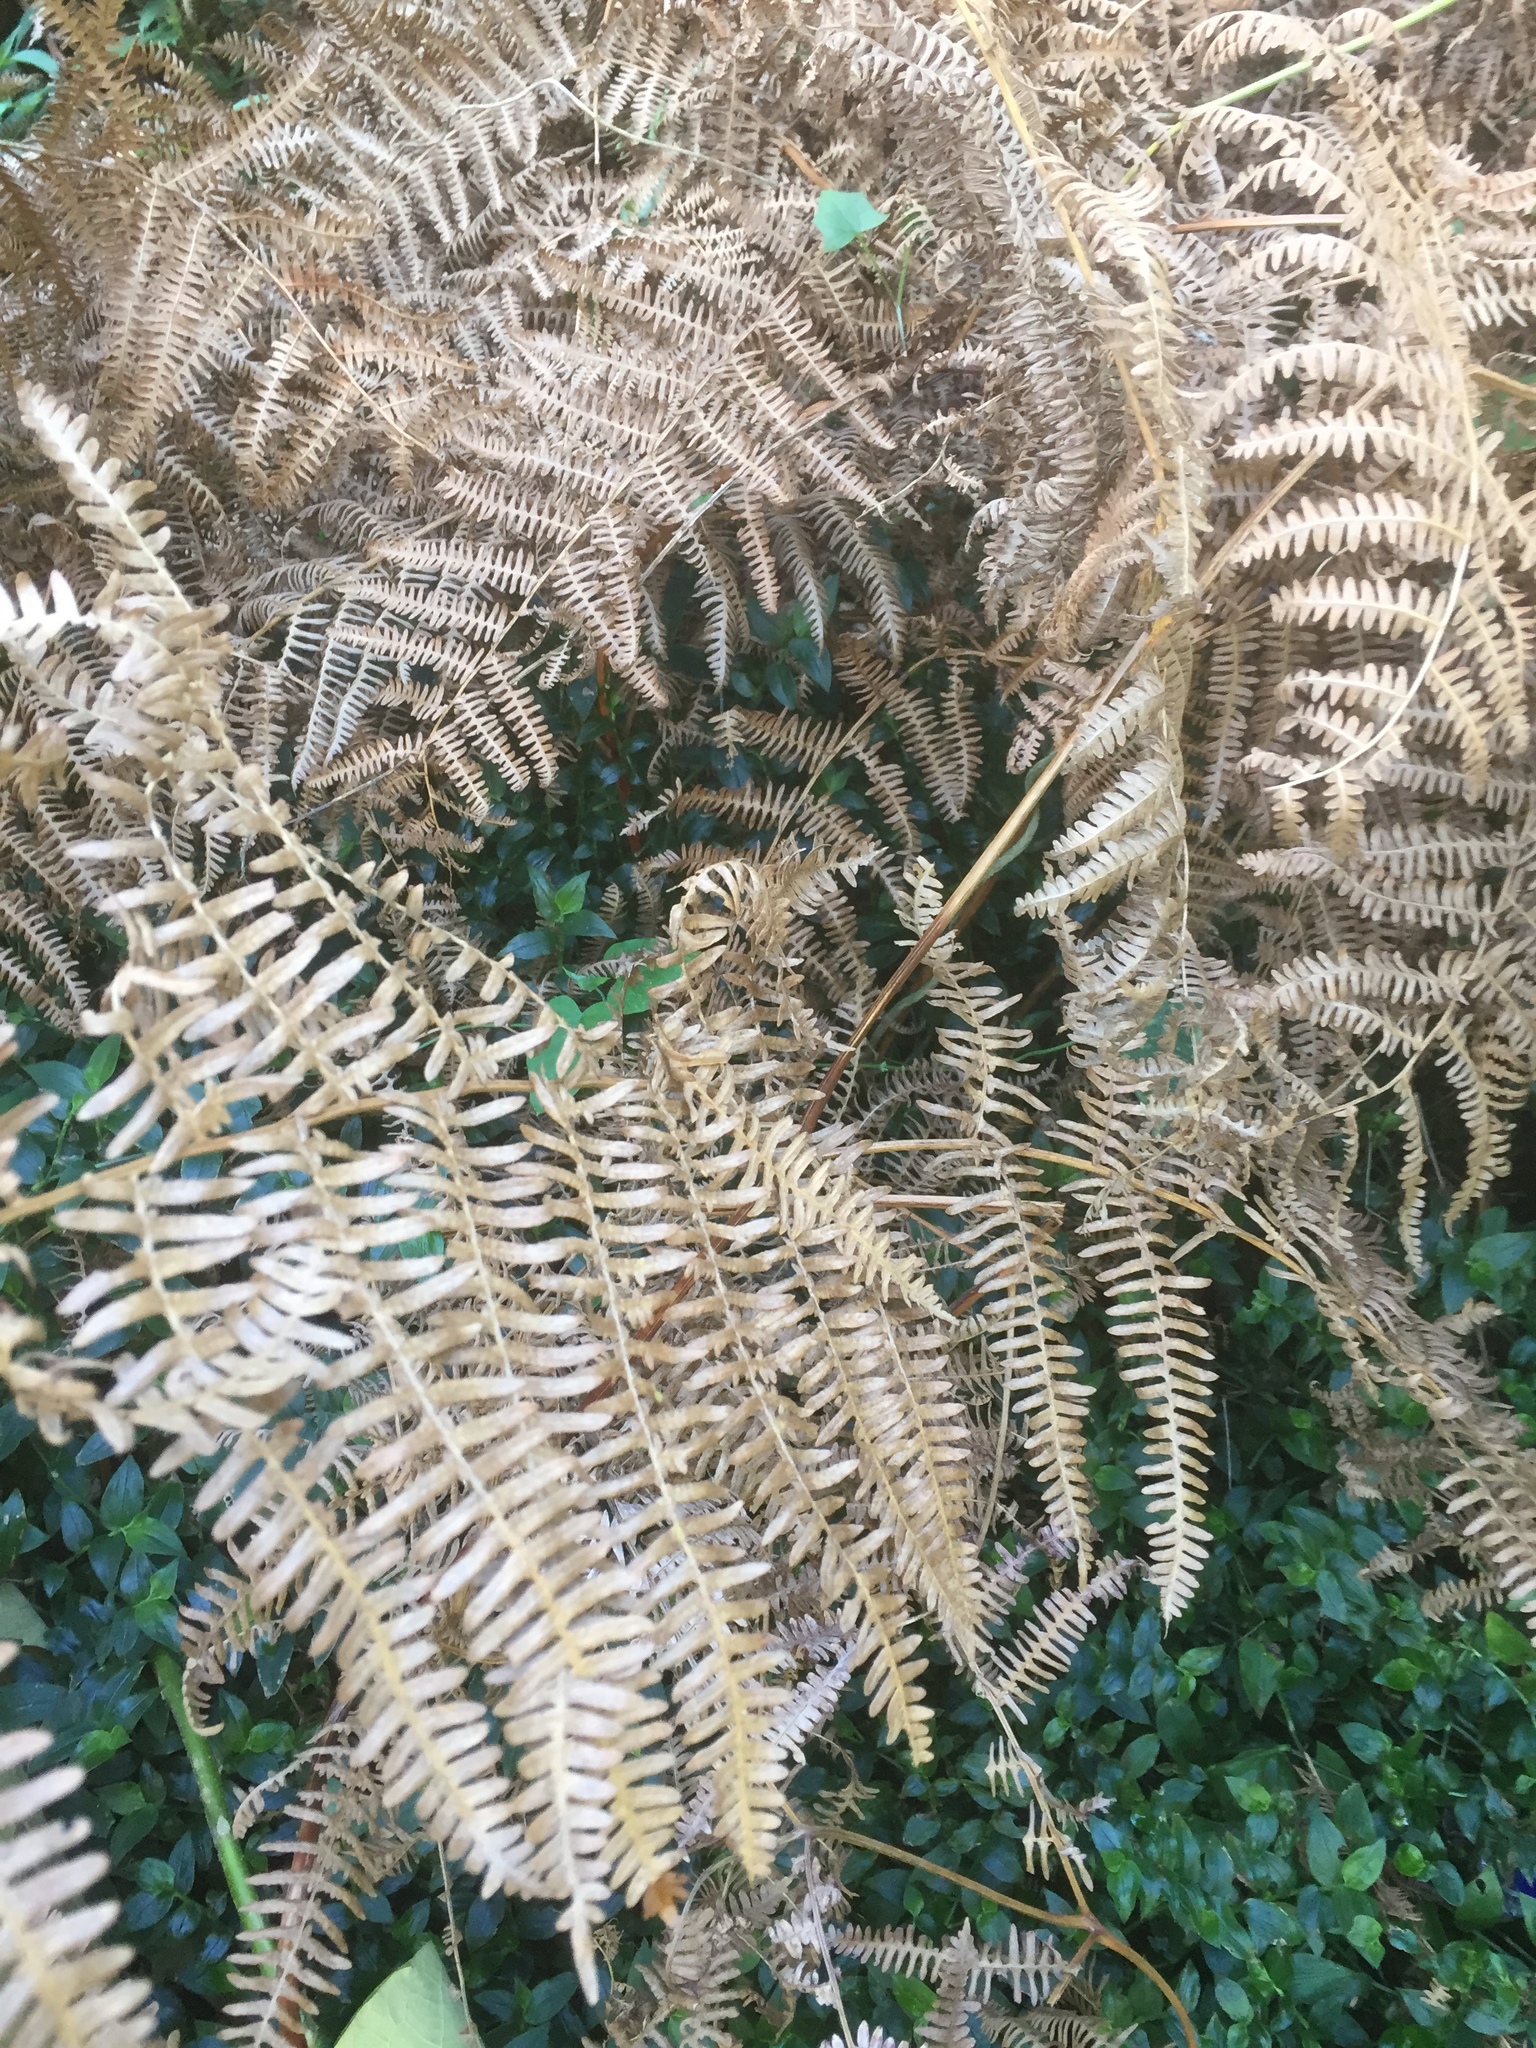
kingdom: Plantae
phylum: Tracheophyta
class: Polypodiopsida
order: Polypodiales
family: Dennstaedtiaceae
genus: Pteridium
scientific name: Pteridium aquilinum
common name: Bracken
